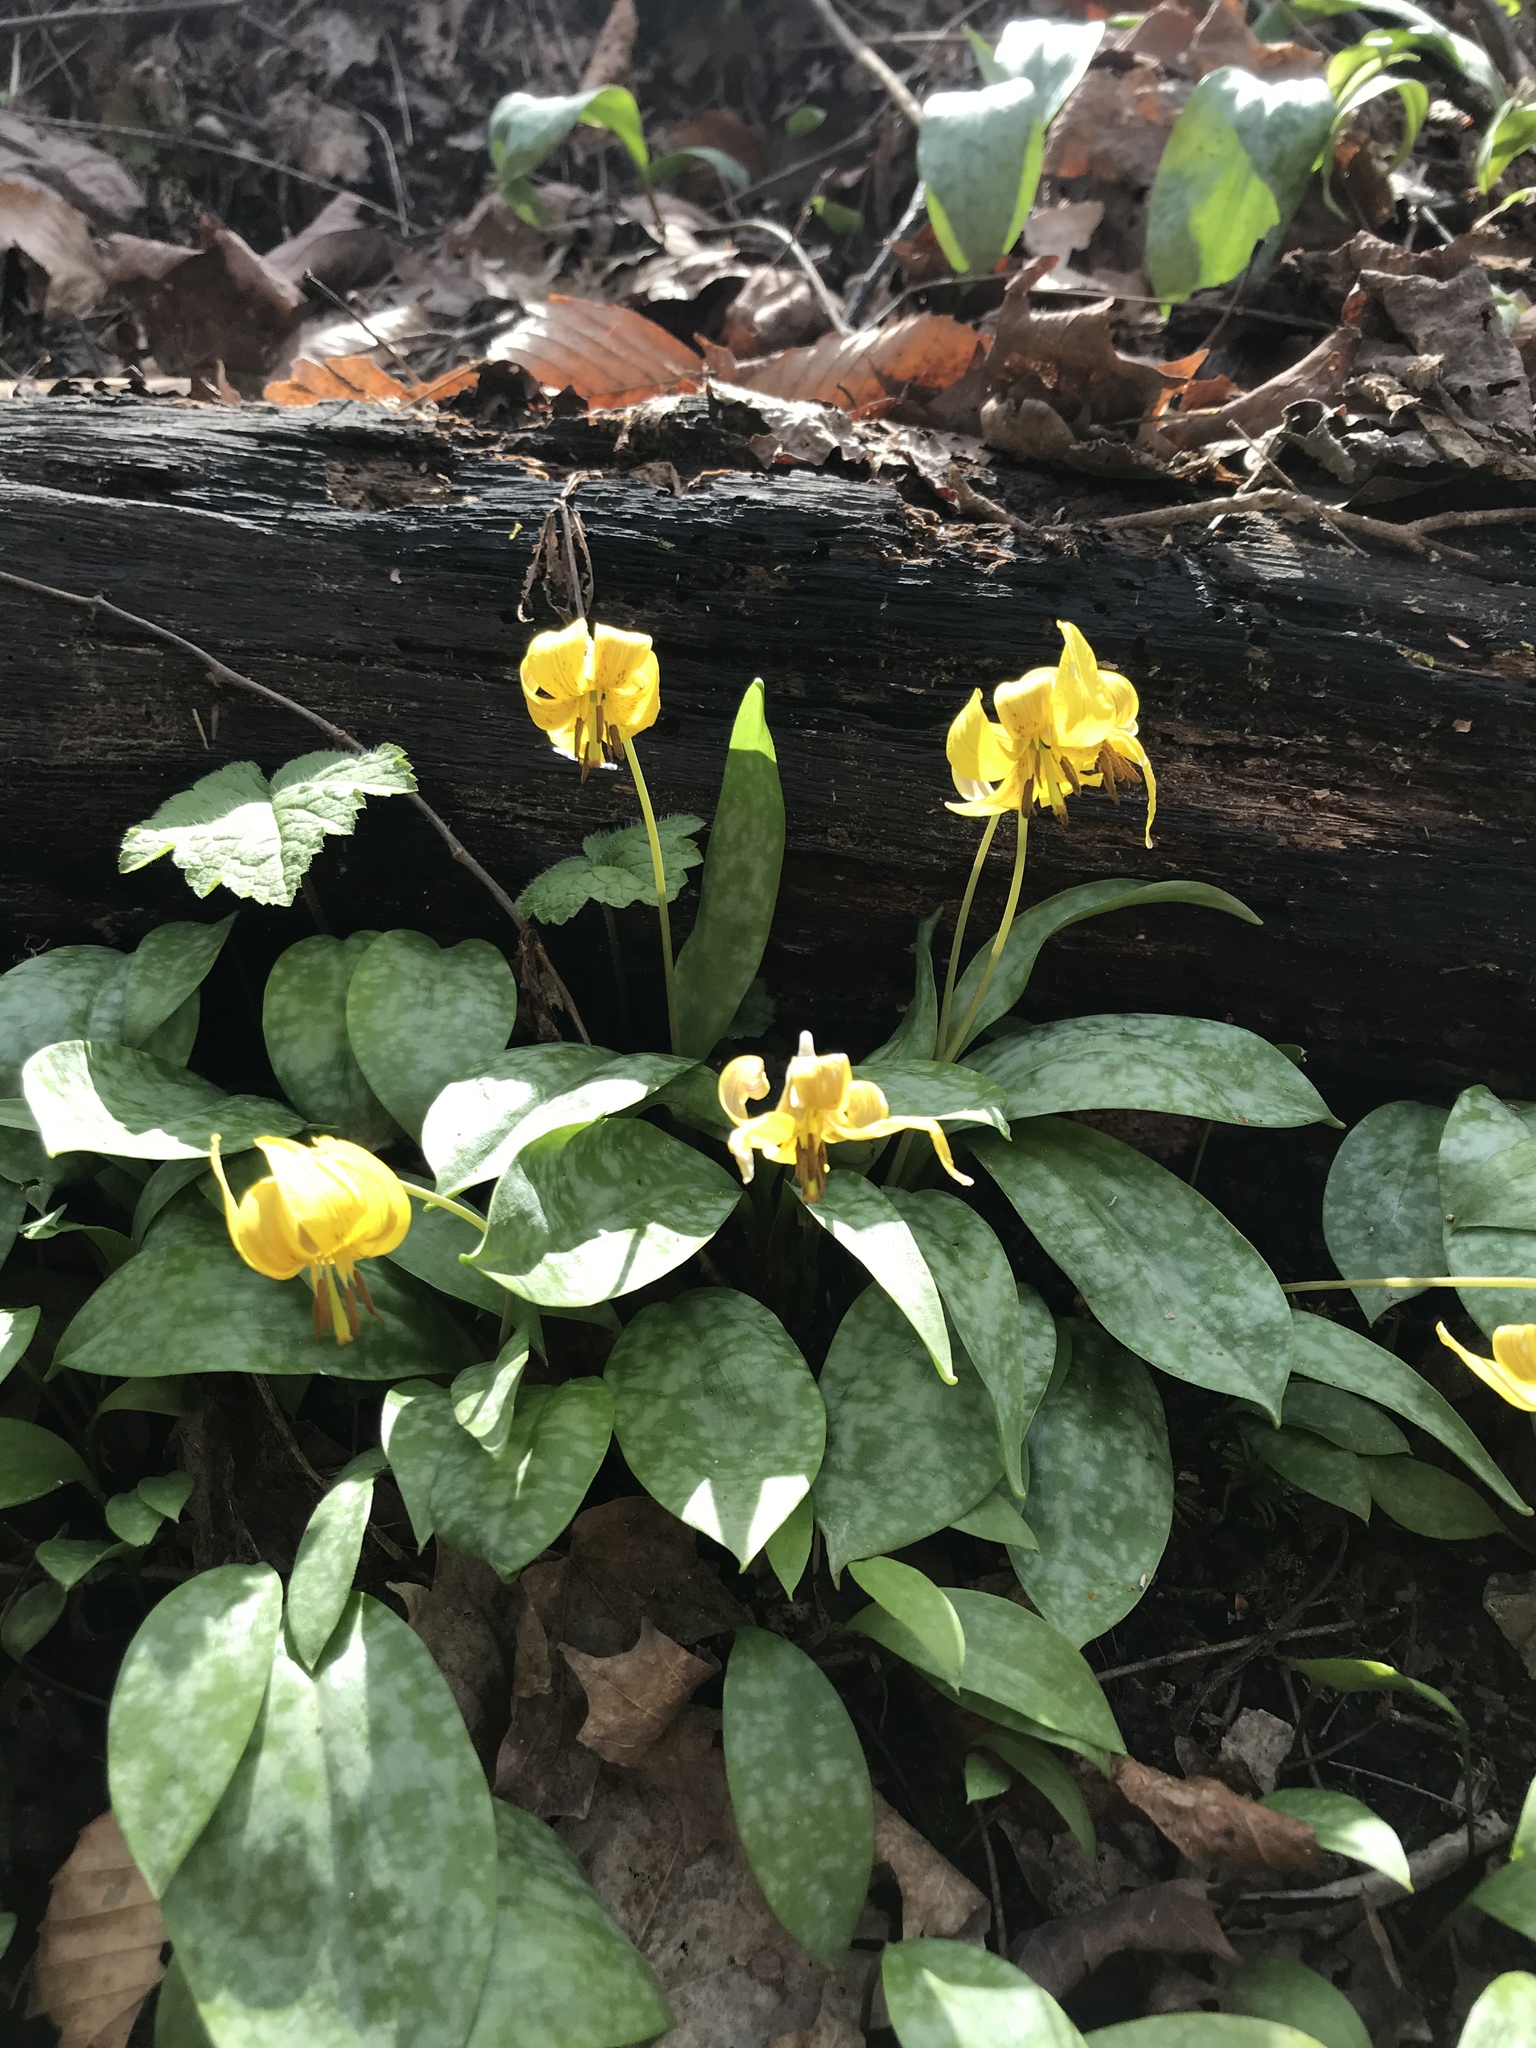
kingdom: Plantae
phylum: Tracheophyta
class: Liliopsida
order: Liliales
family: Liliaceae
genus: Erythronium
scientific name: Erythronium americanum
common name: Yellow adder's-tongue
